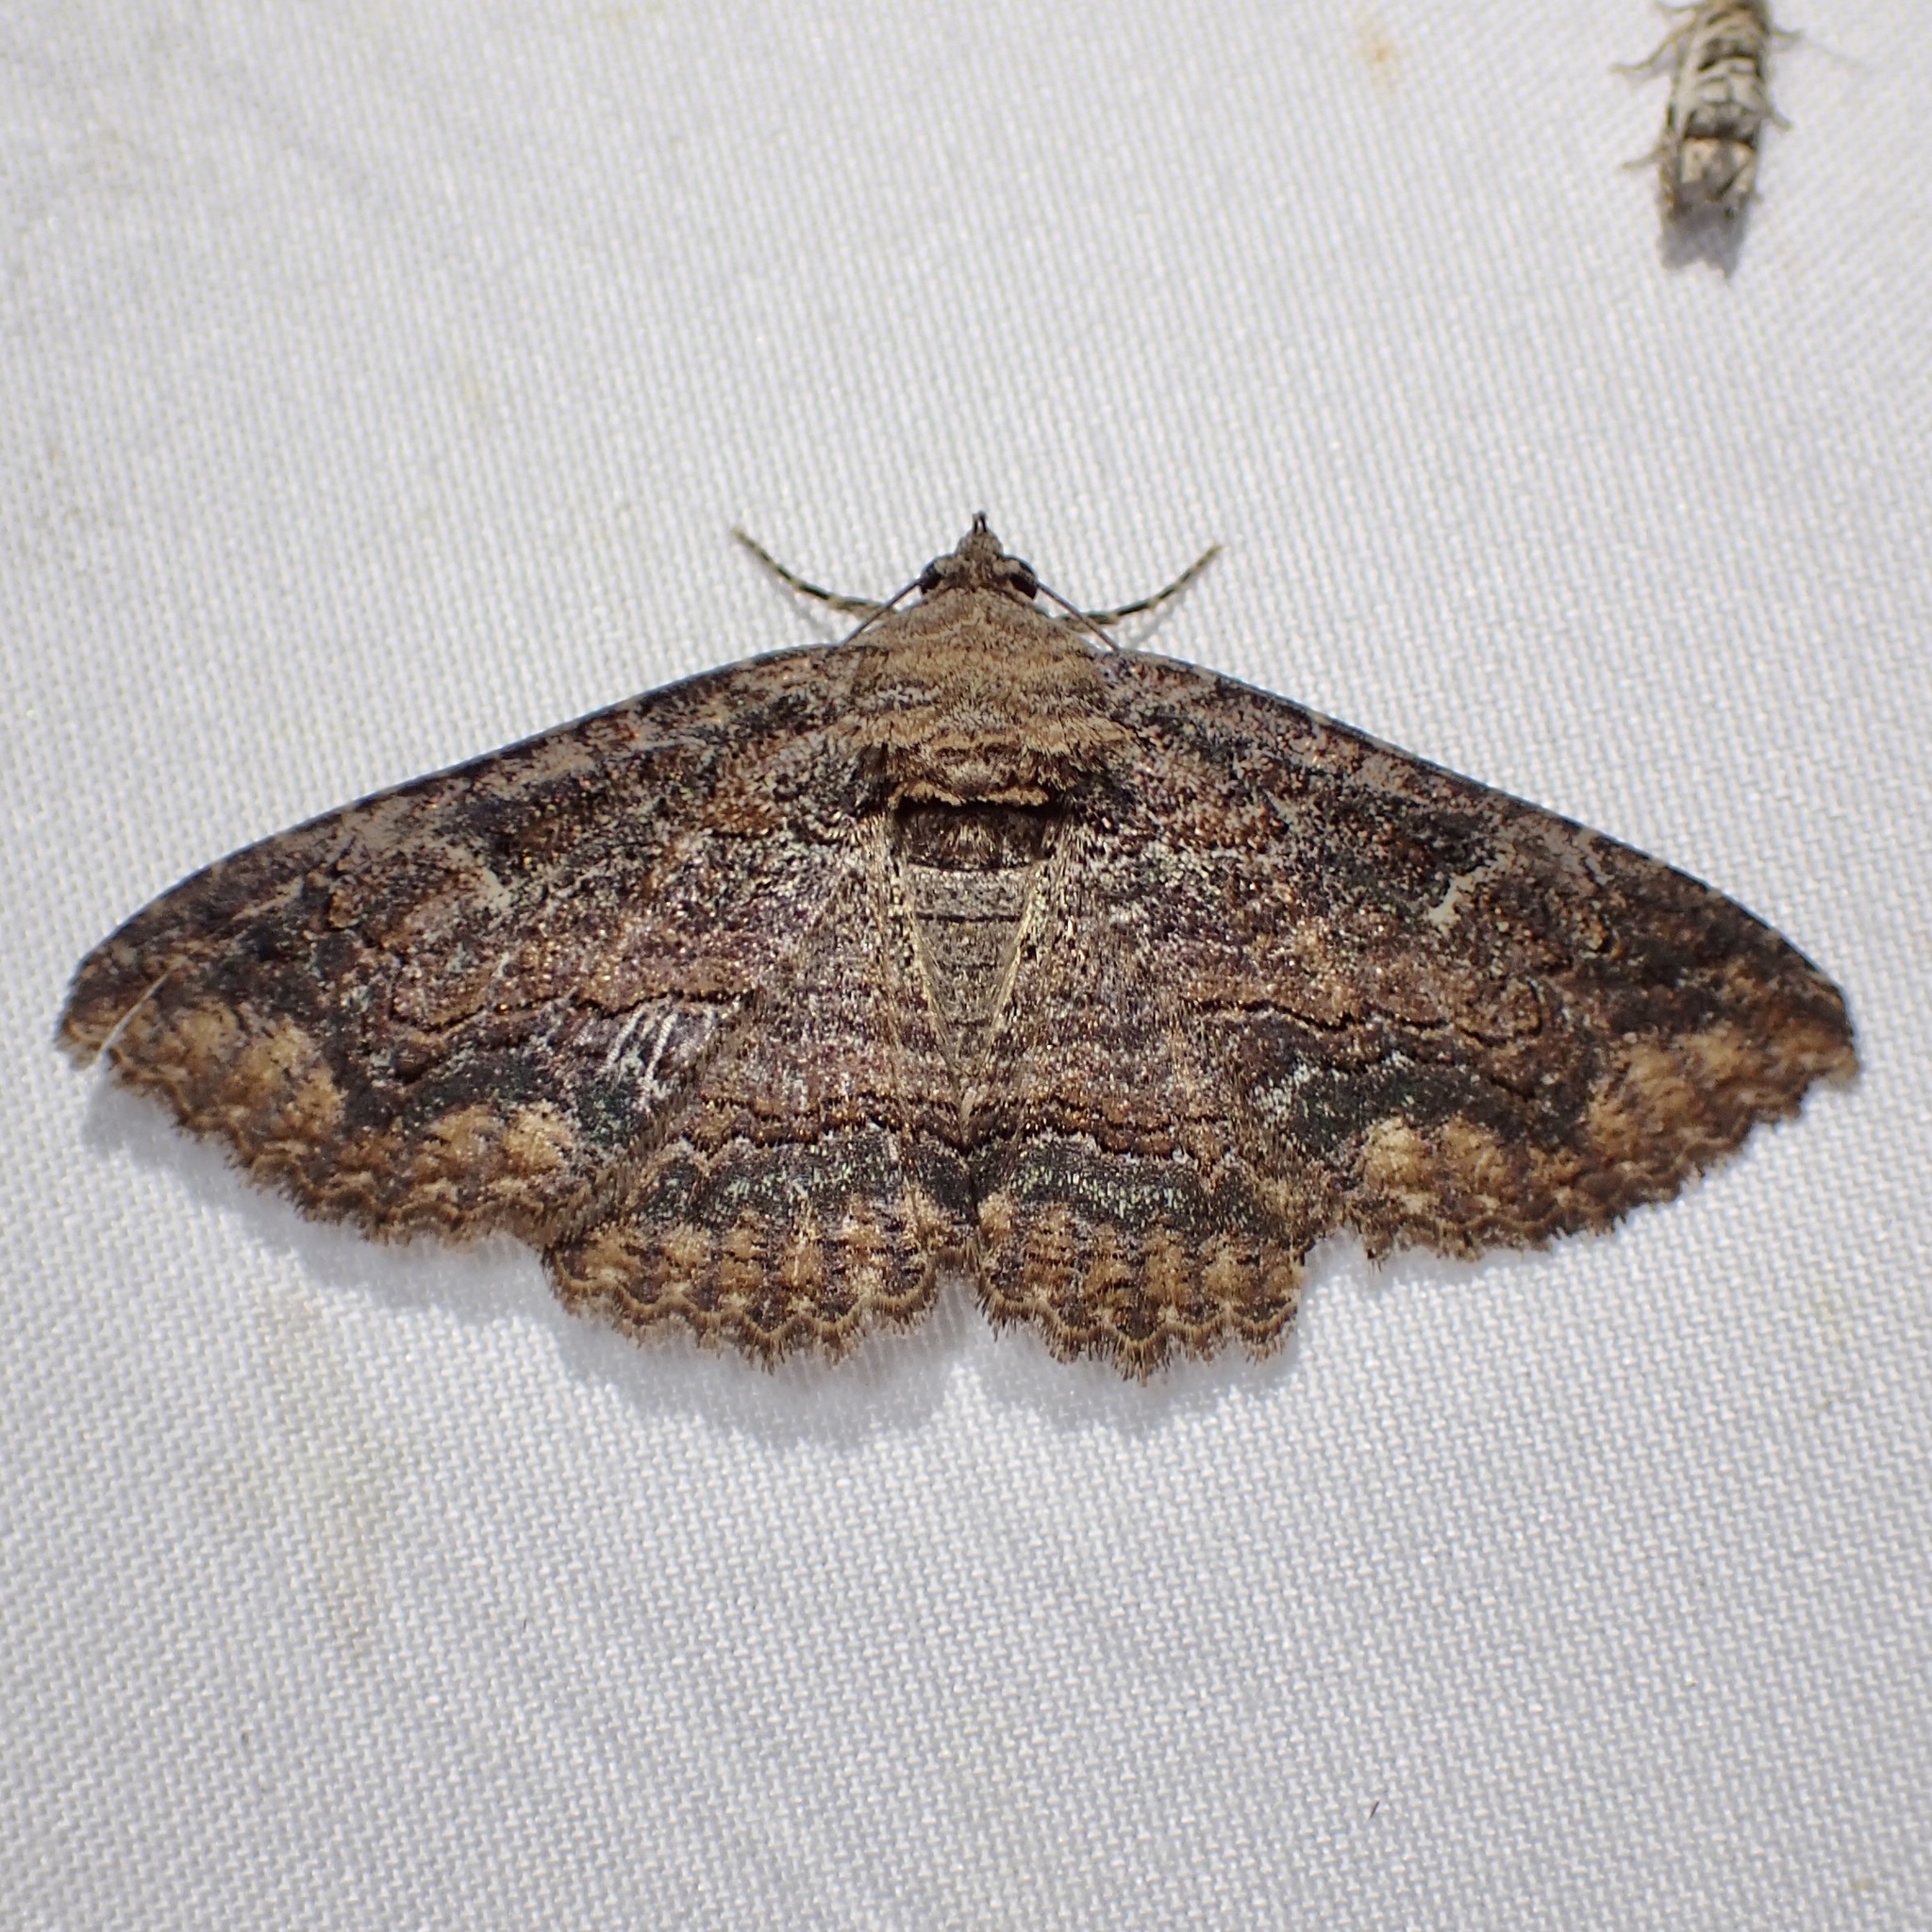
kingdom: Animalia
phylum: Arthropoda
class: Insecta
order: Lepidoptera
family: Erebidae
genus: Zaleops
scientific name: Zaleops umbrina
